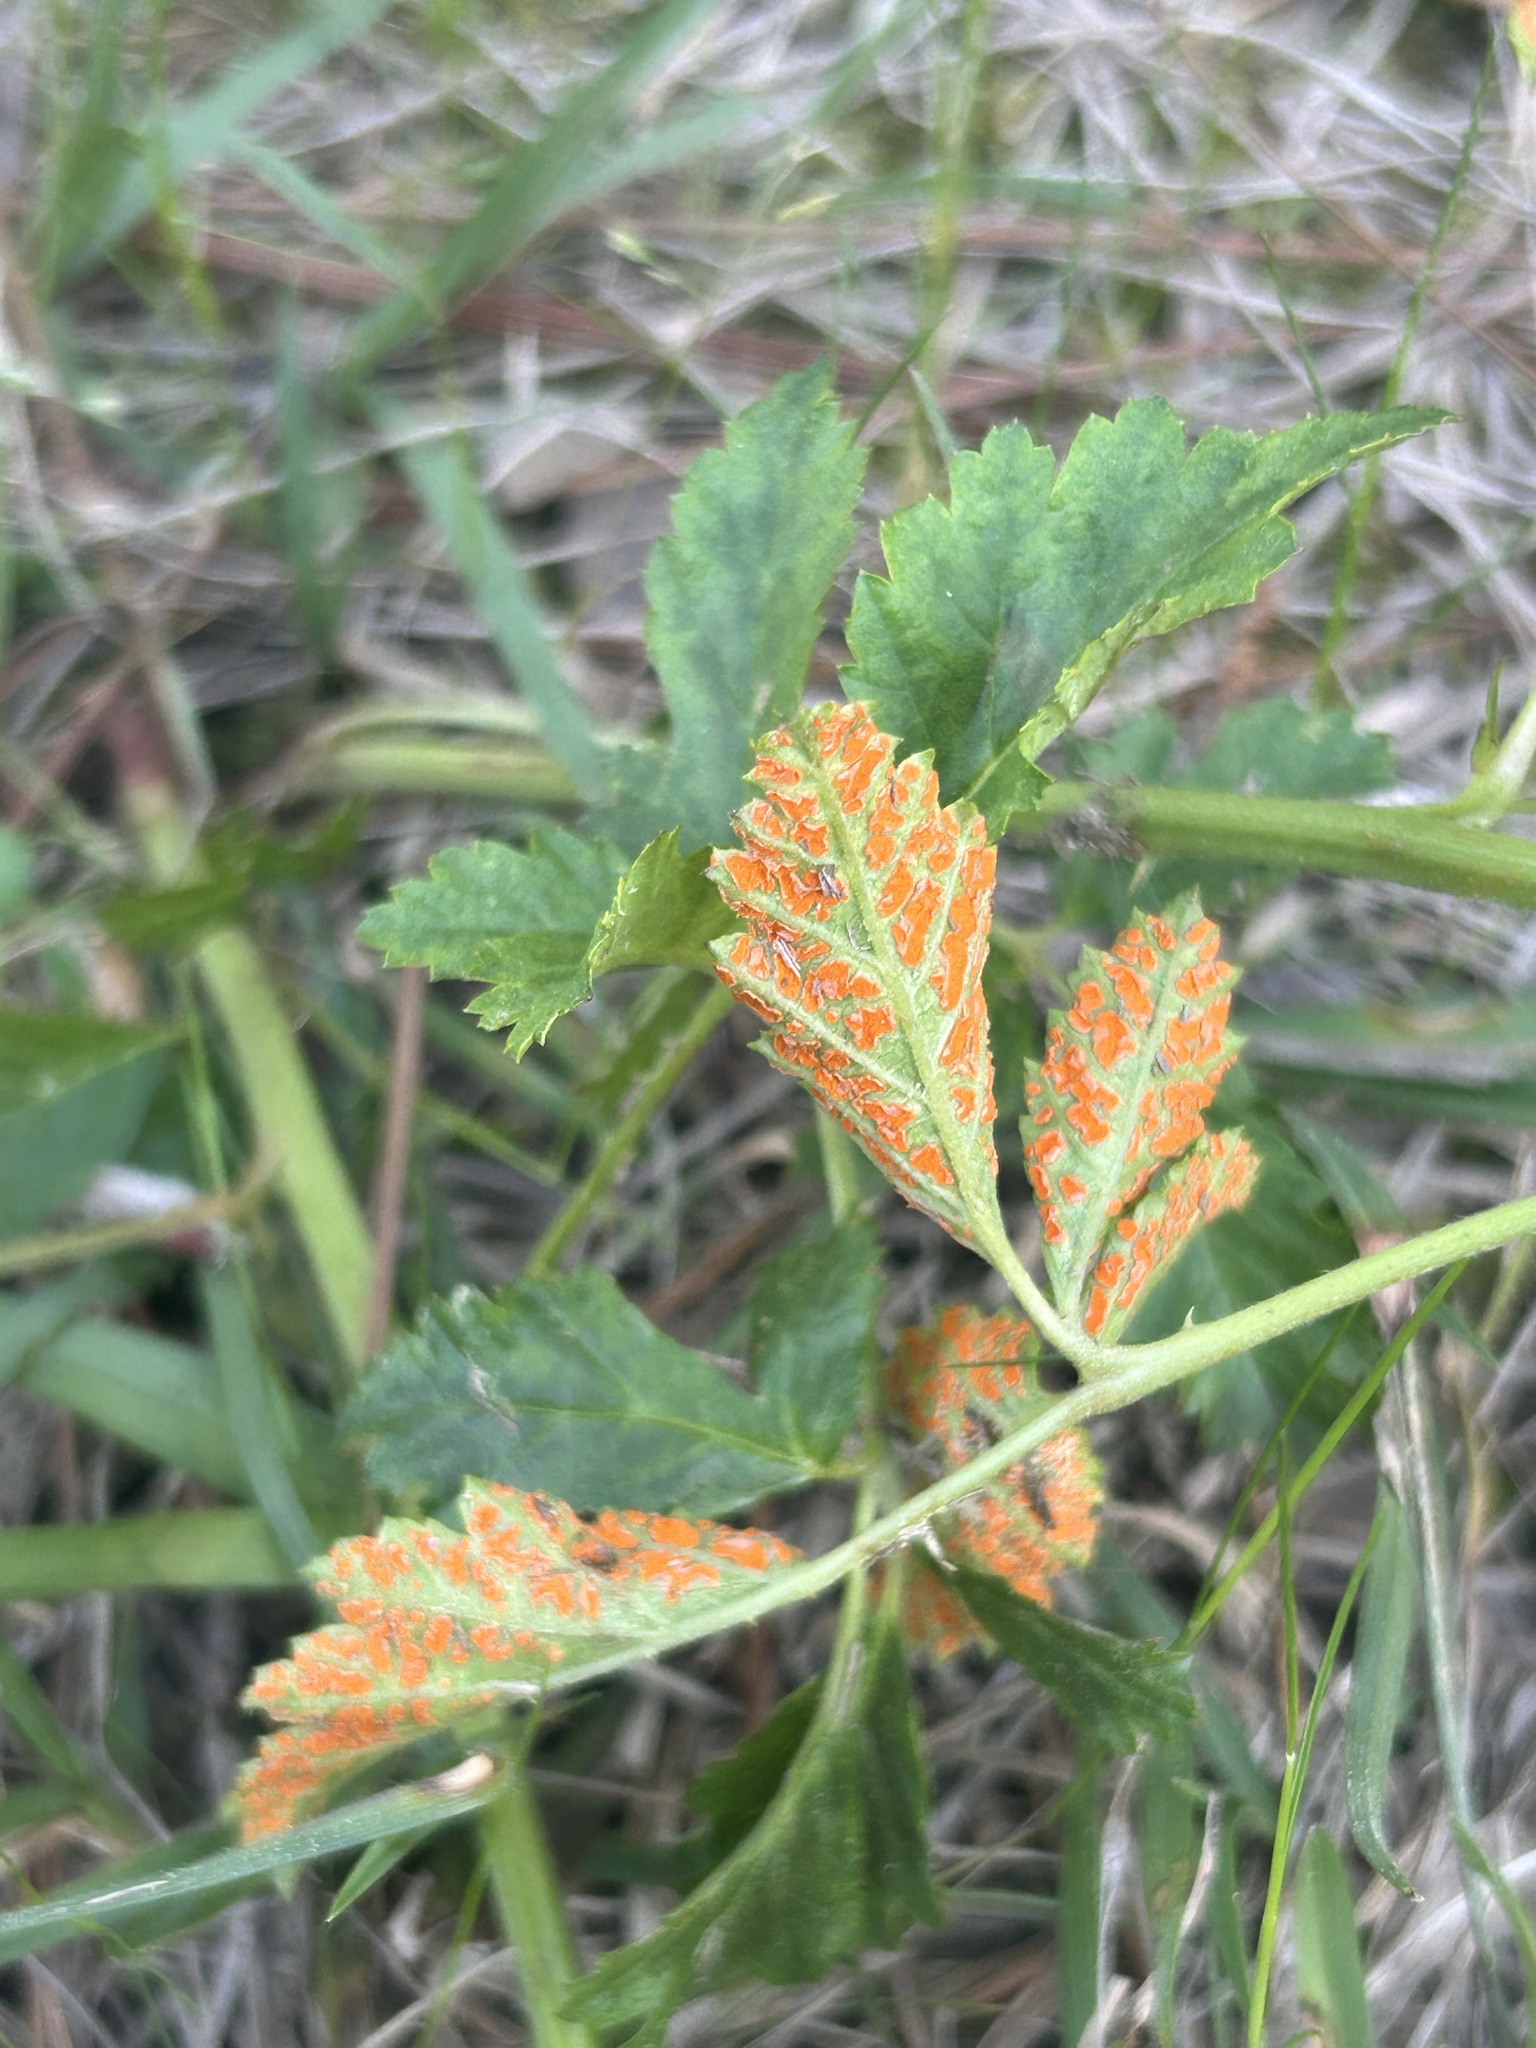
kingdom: Fungi
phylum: Basidiomycota
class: Pucciniomycetes
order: Pucciniales
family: Phragmidiaceae
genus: Arthuriomyces
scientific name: Arthuriomyces peckianus
